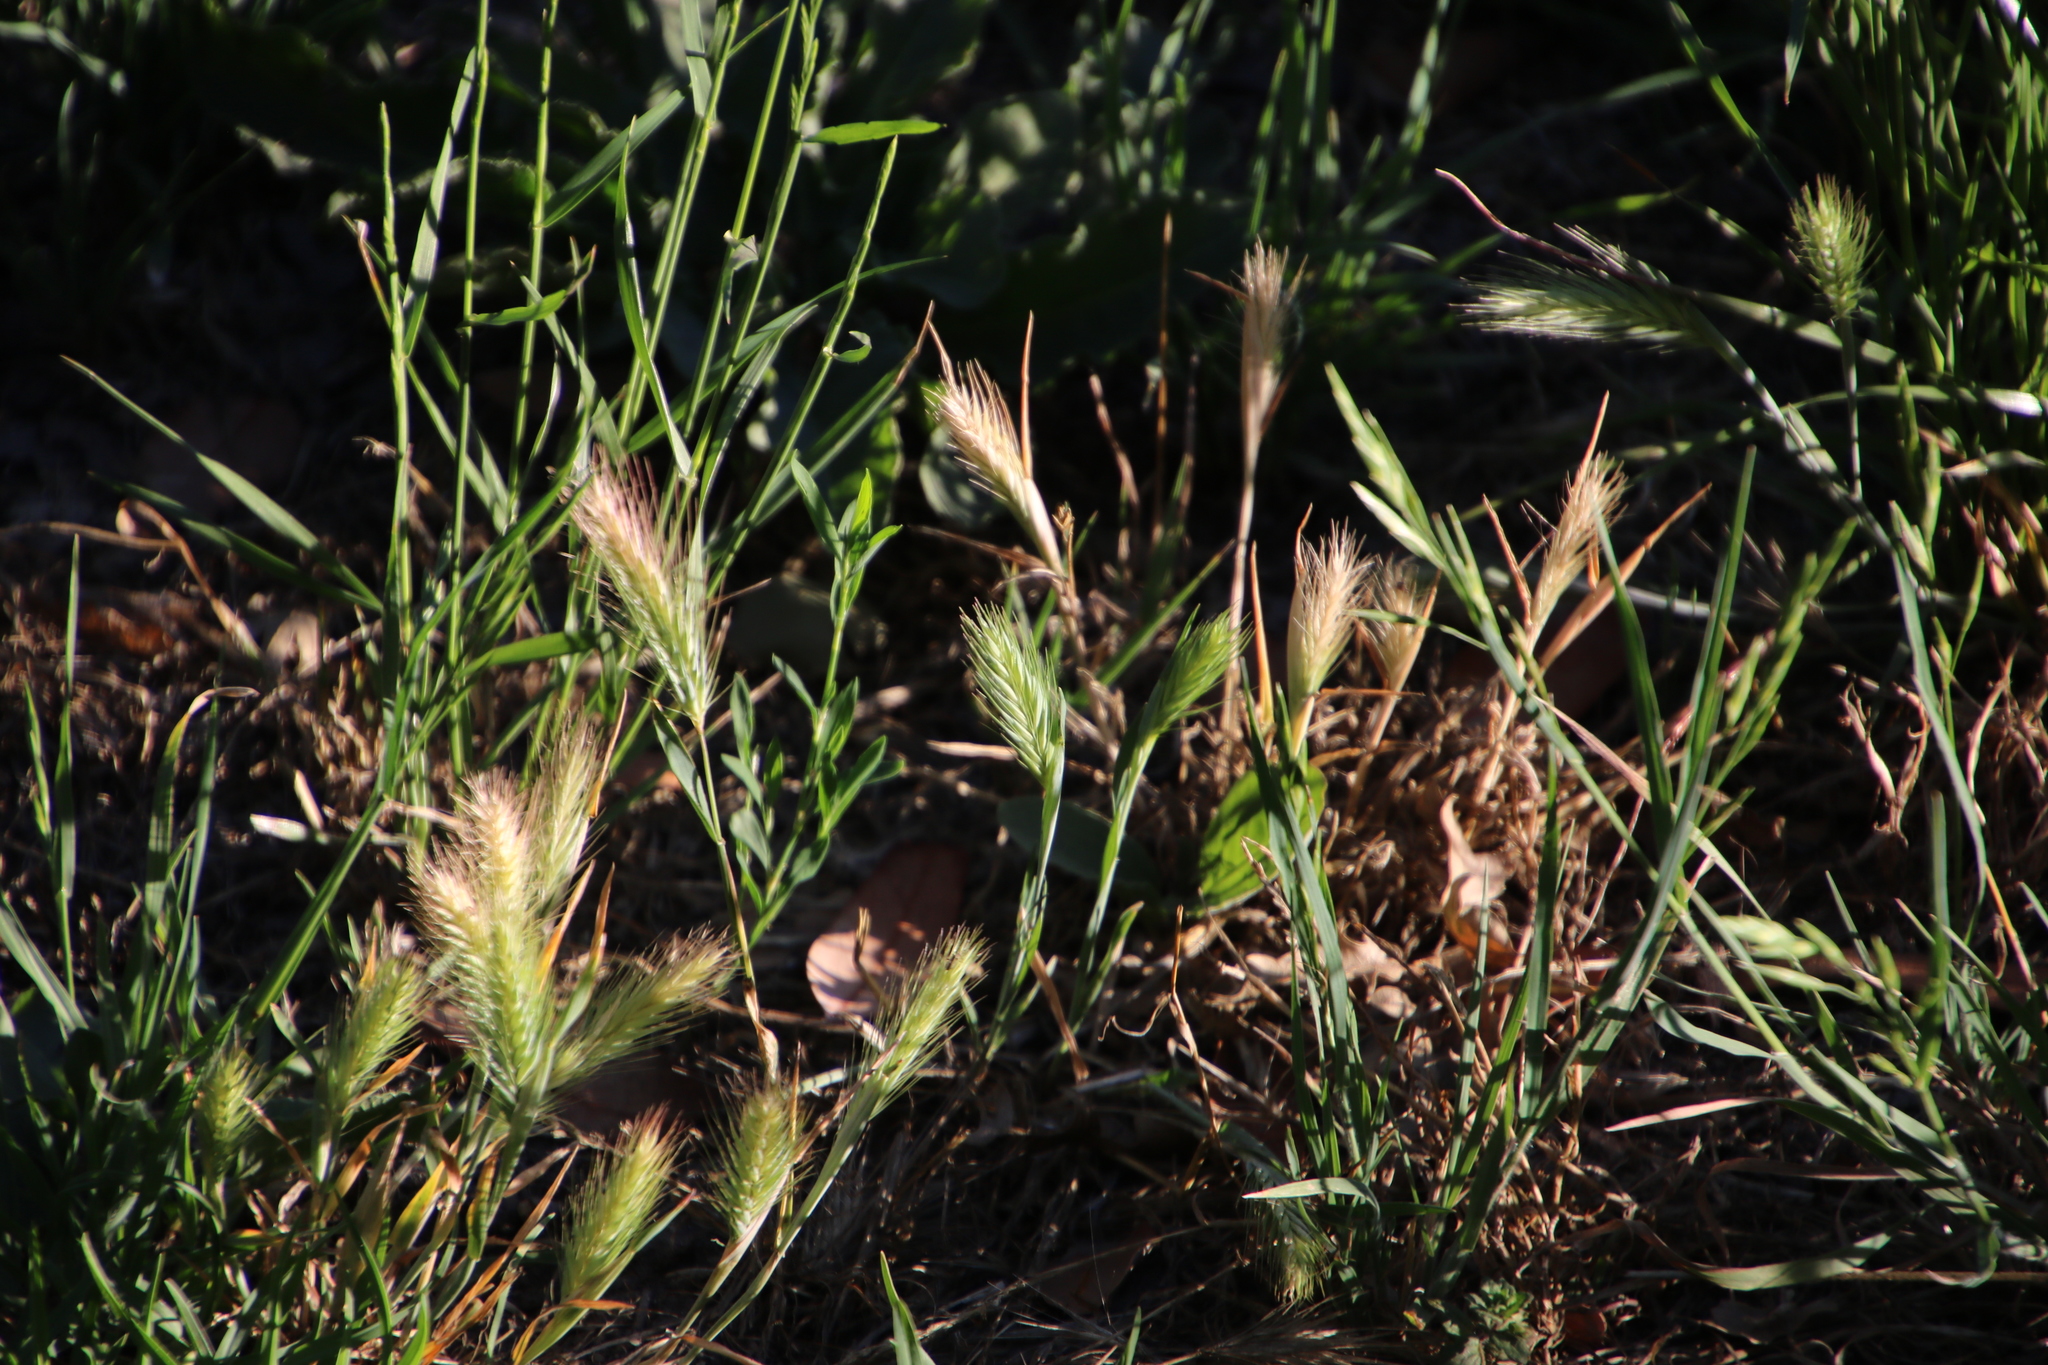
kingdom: Plantae
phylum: Tracheophyta
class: Liliopsida
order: Poales
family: Poaceae
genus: Hordeum
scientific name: Hordeum murinum
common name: Wall barley
